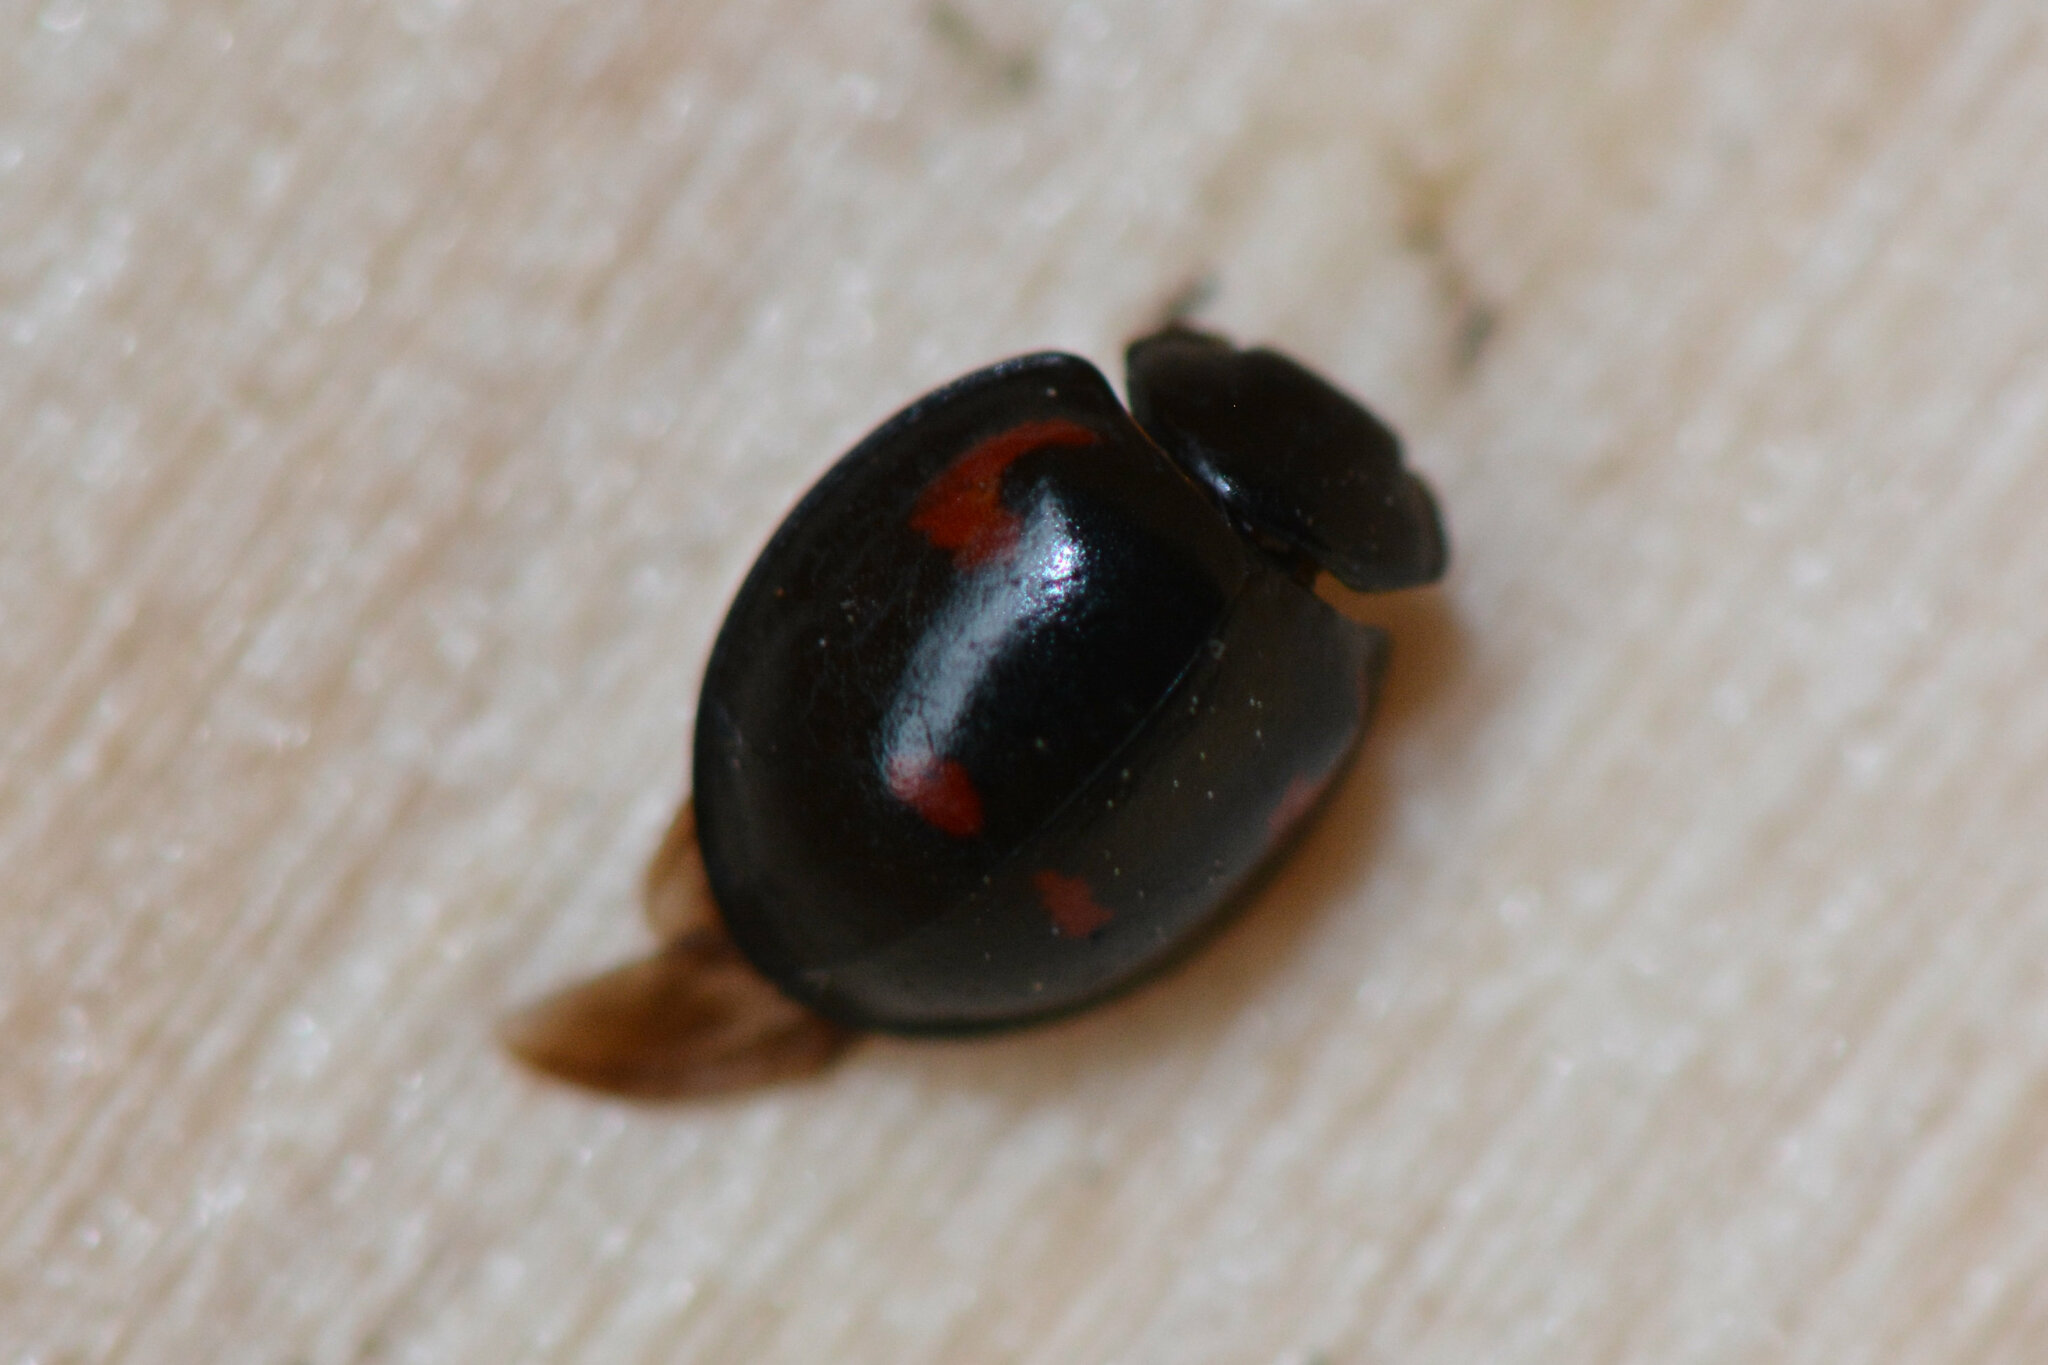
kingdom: Animalia
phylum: Arthropoda
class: Insecta
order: Coleoptera
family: Coccinellidae
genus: Brumus
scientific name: Brumus quadripustulatus
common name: Ladybird beetle
